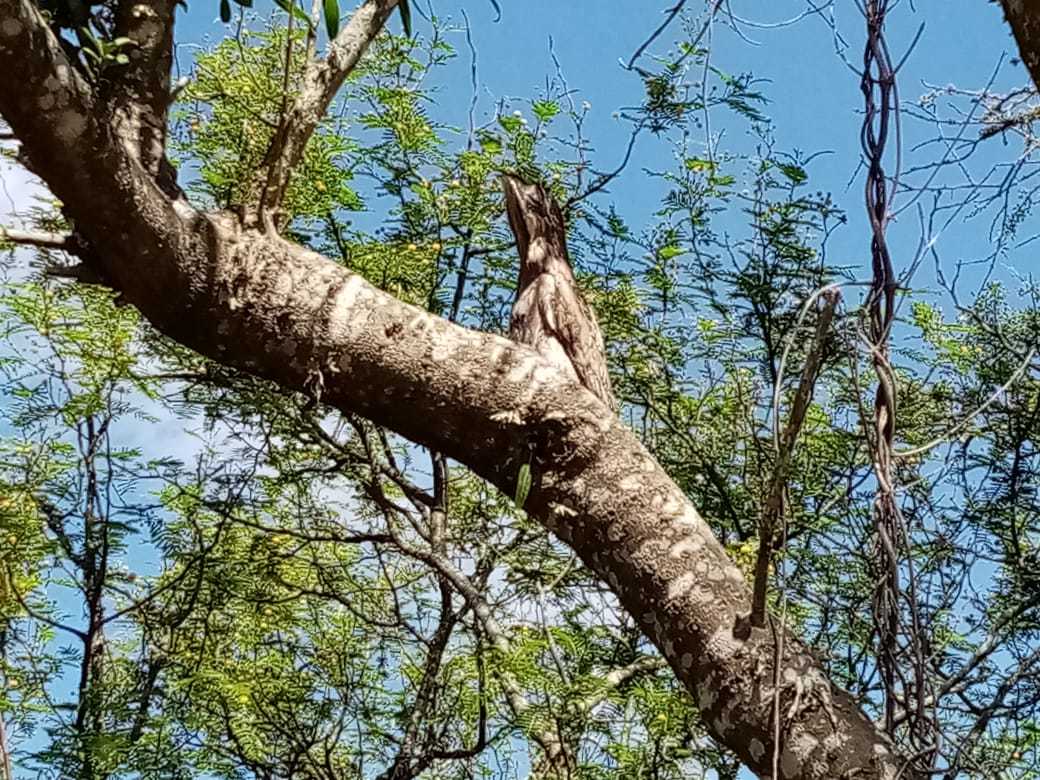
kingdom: Animalia
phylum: Chordata
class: Aves
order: Nyctibiiformes
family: Nyctibiidae
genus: Nyctibius
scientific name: Nyctibius griseus
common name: Common potoo
